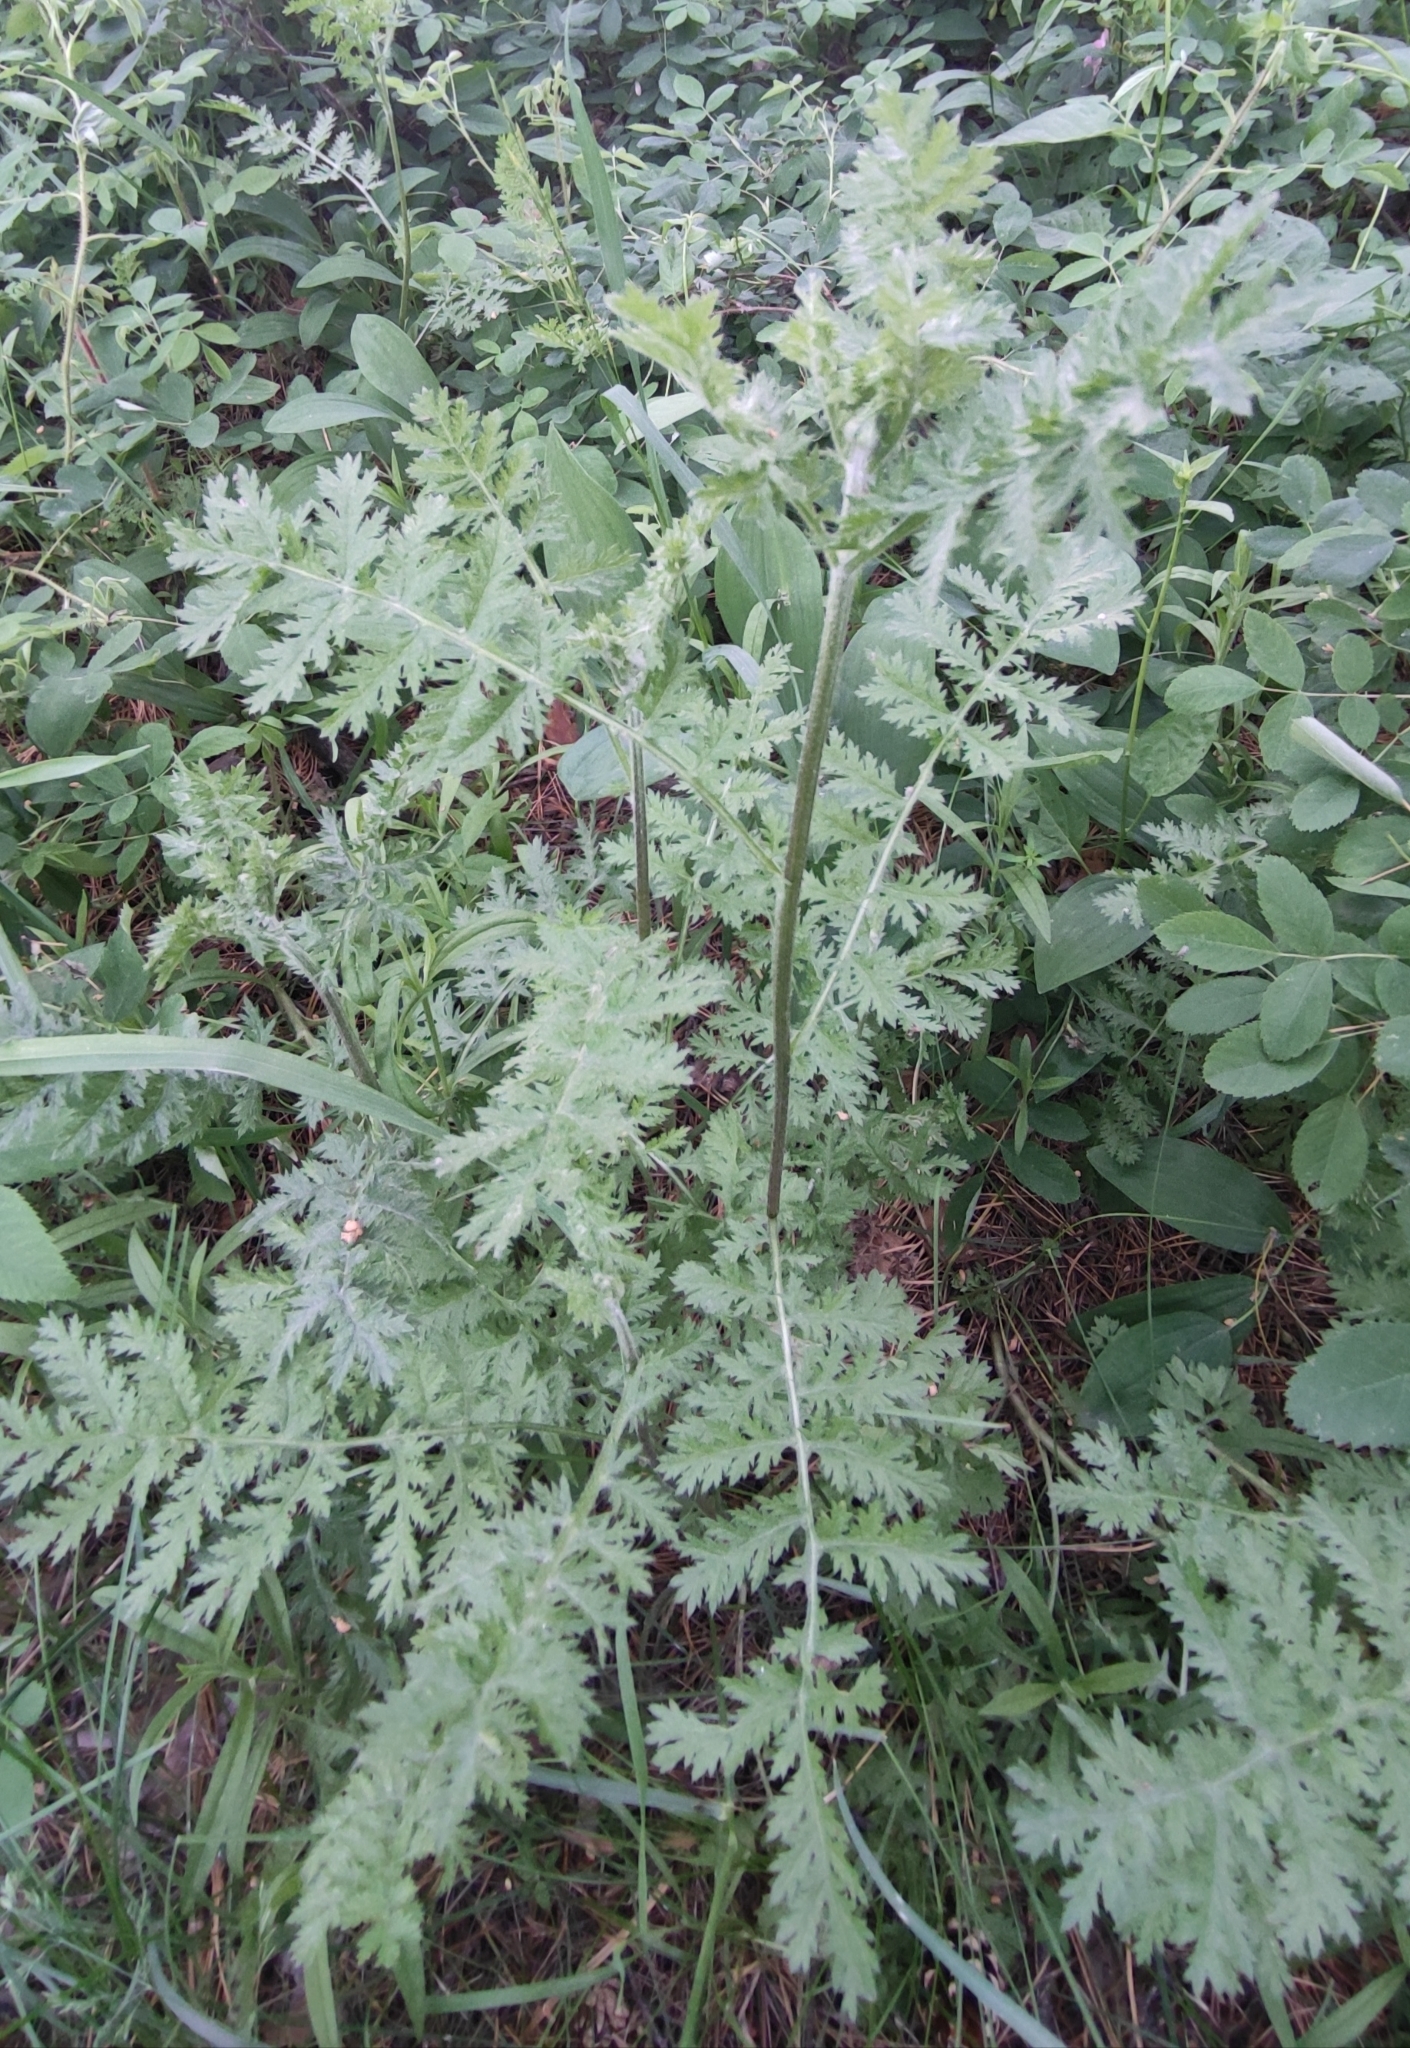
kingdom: Plantae
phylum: Tracheophyta
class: Magnoliopsida
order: Asterales
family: Asteraceae
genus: Artemisia
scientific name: Artemisia tanacetifolia
